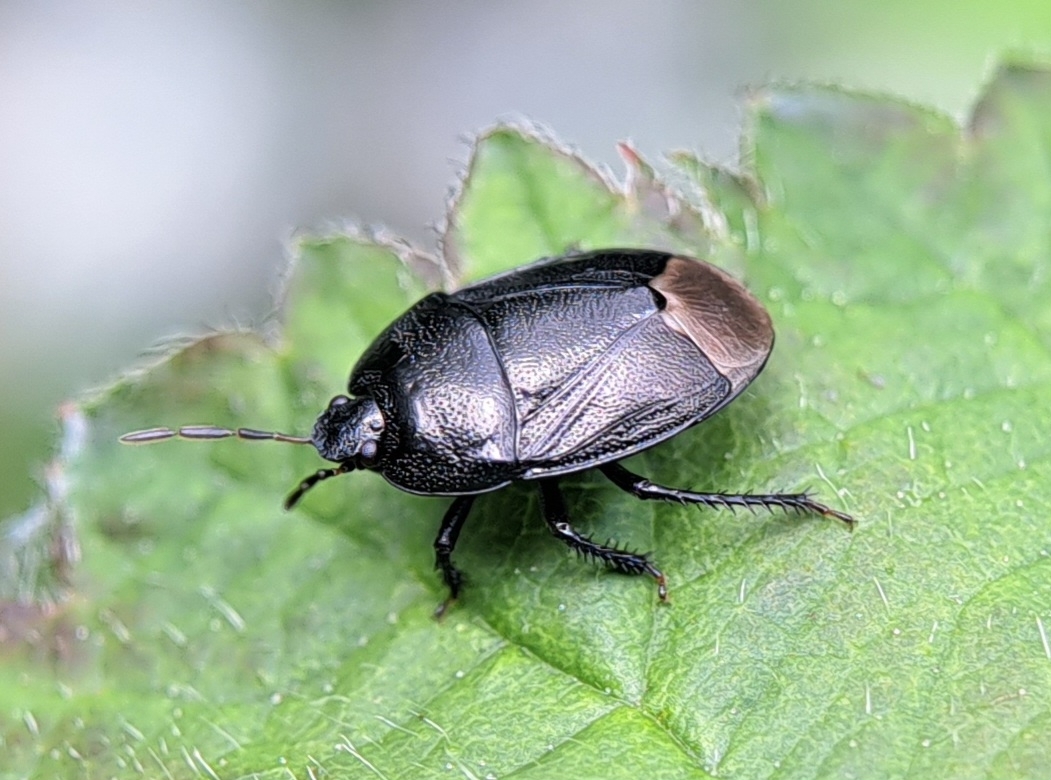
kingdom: Animalia
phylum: Arthropoda
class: Insecta
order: Hemiptera
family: Cydnidae
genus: Sehirus
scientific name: Sehirus luctuosus
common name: Forget-me-not shieldbug
